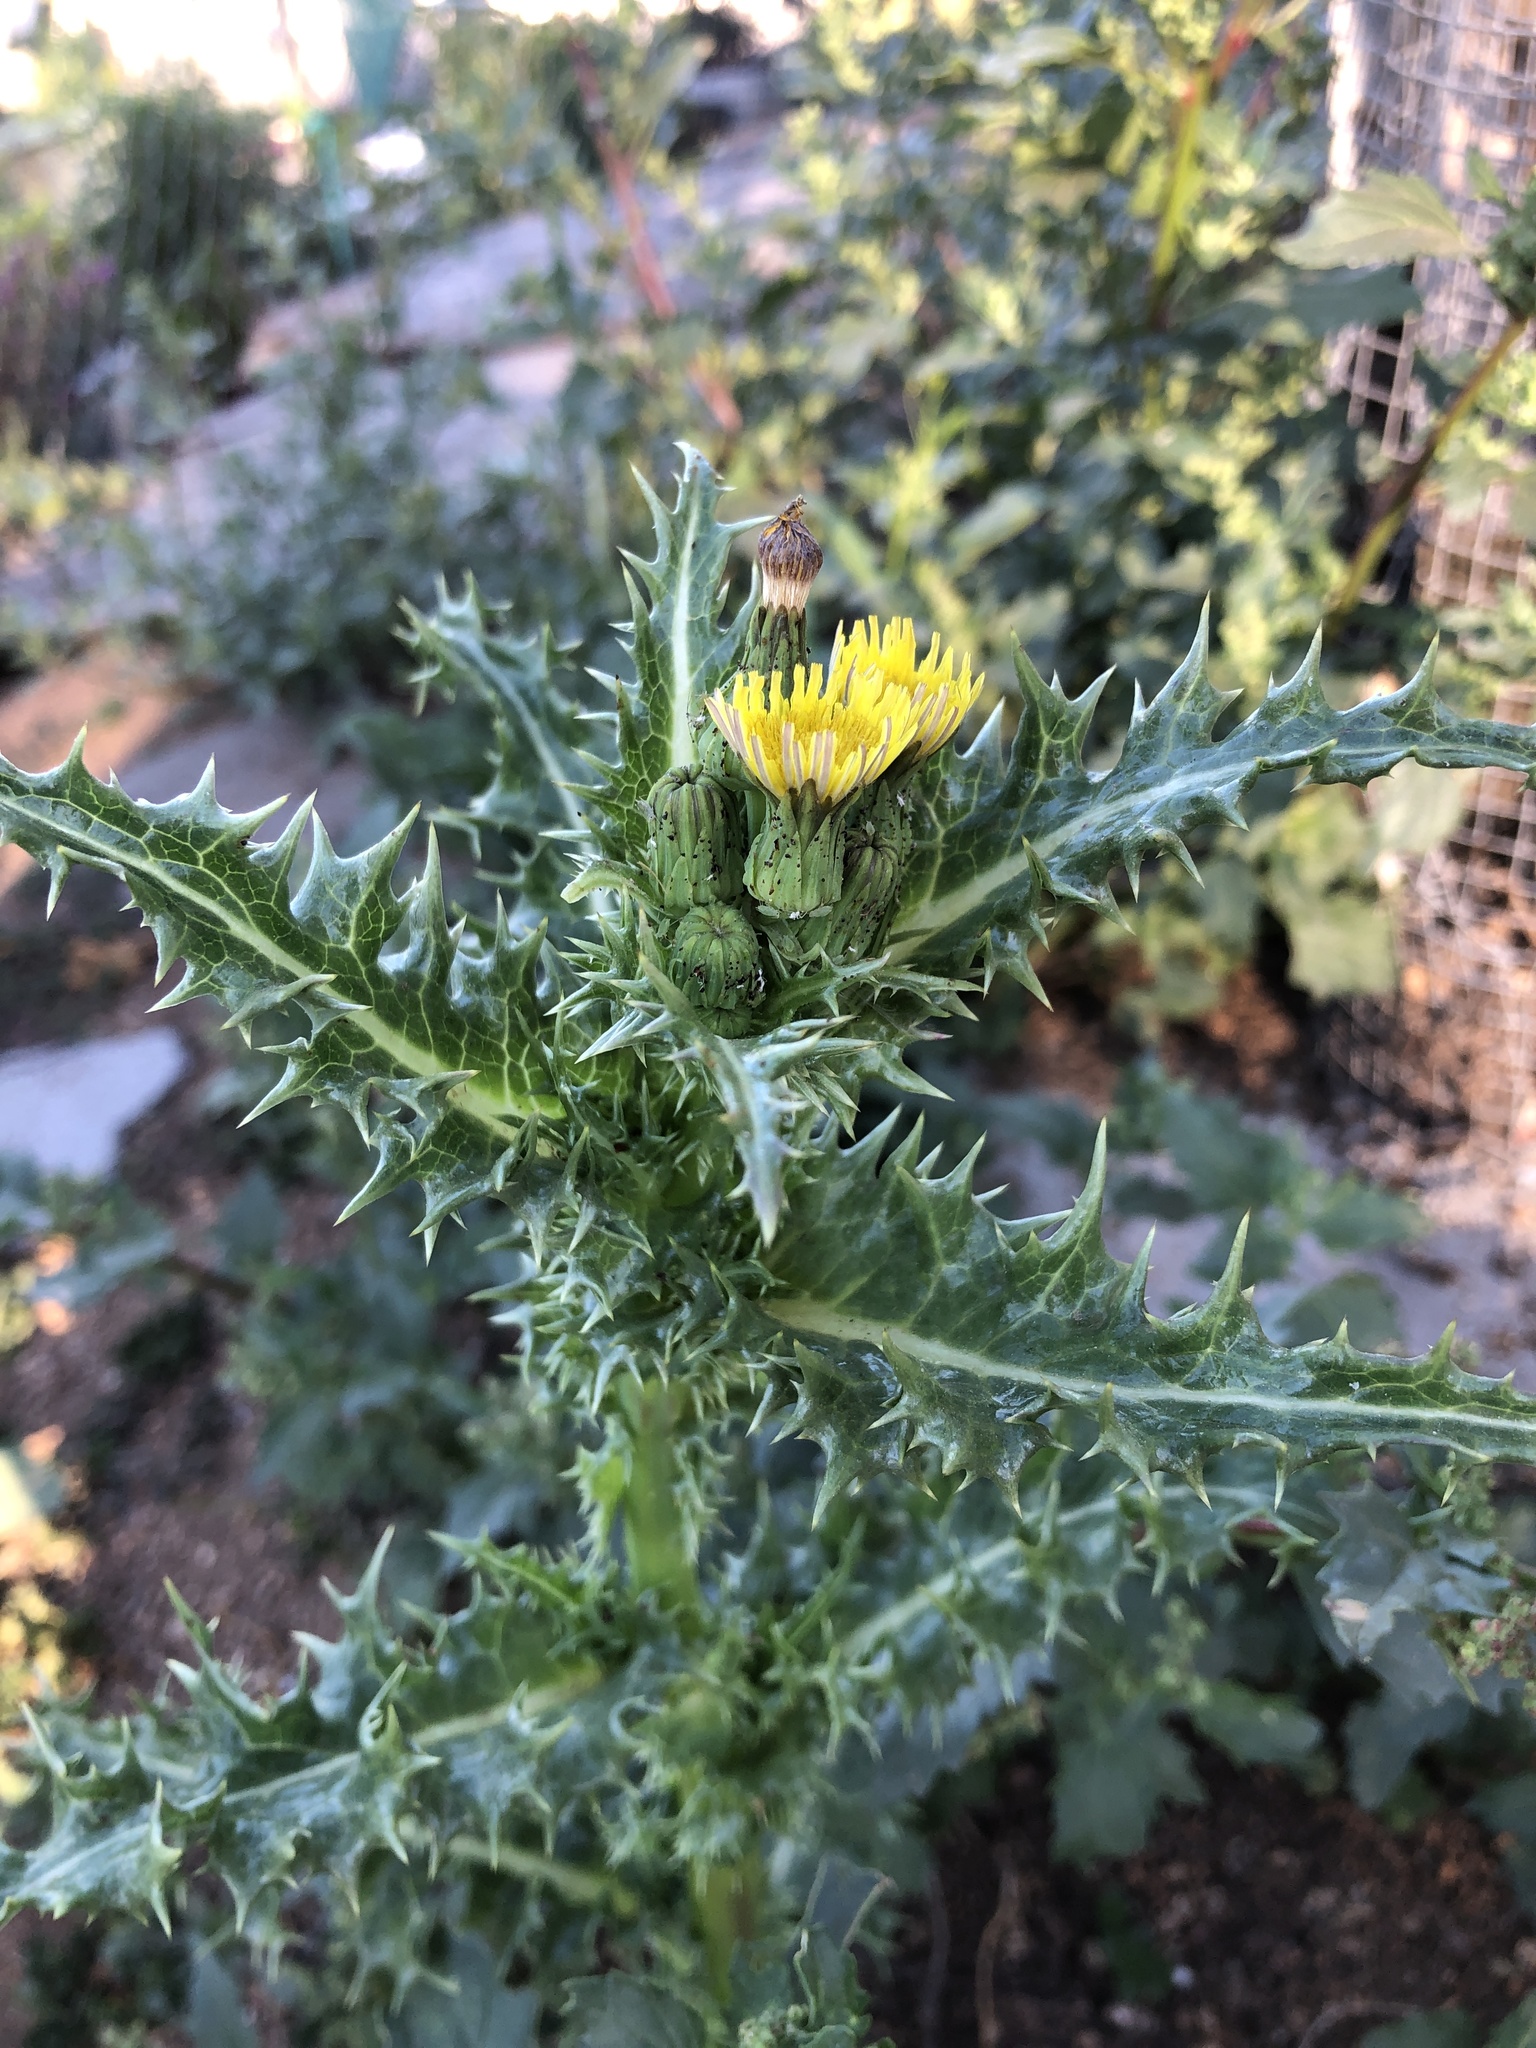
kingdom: Plantae
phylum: Tracheophyta
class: Magnoliopsida
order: Asterales
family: Asteraceae
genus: Sonchus
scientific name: Sonchus asper
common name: Prickly sow-thistle
